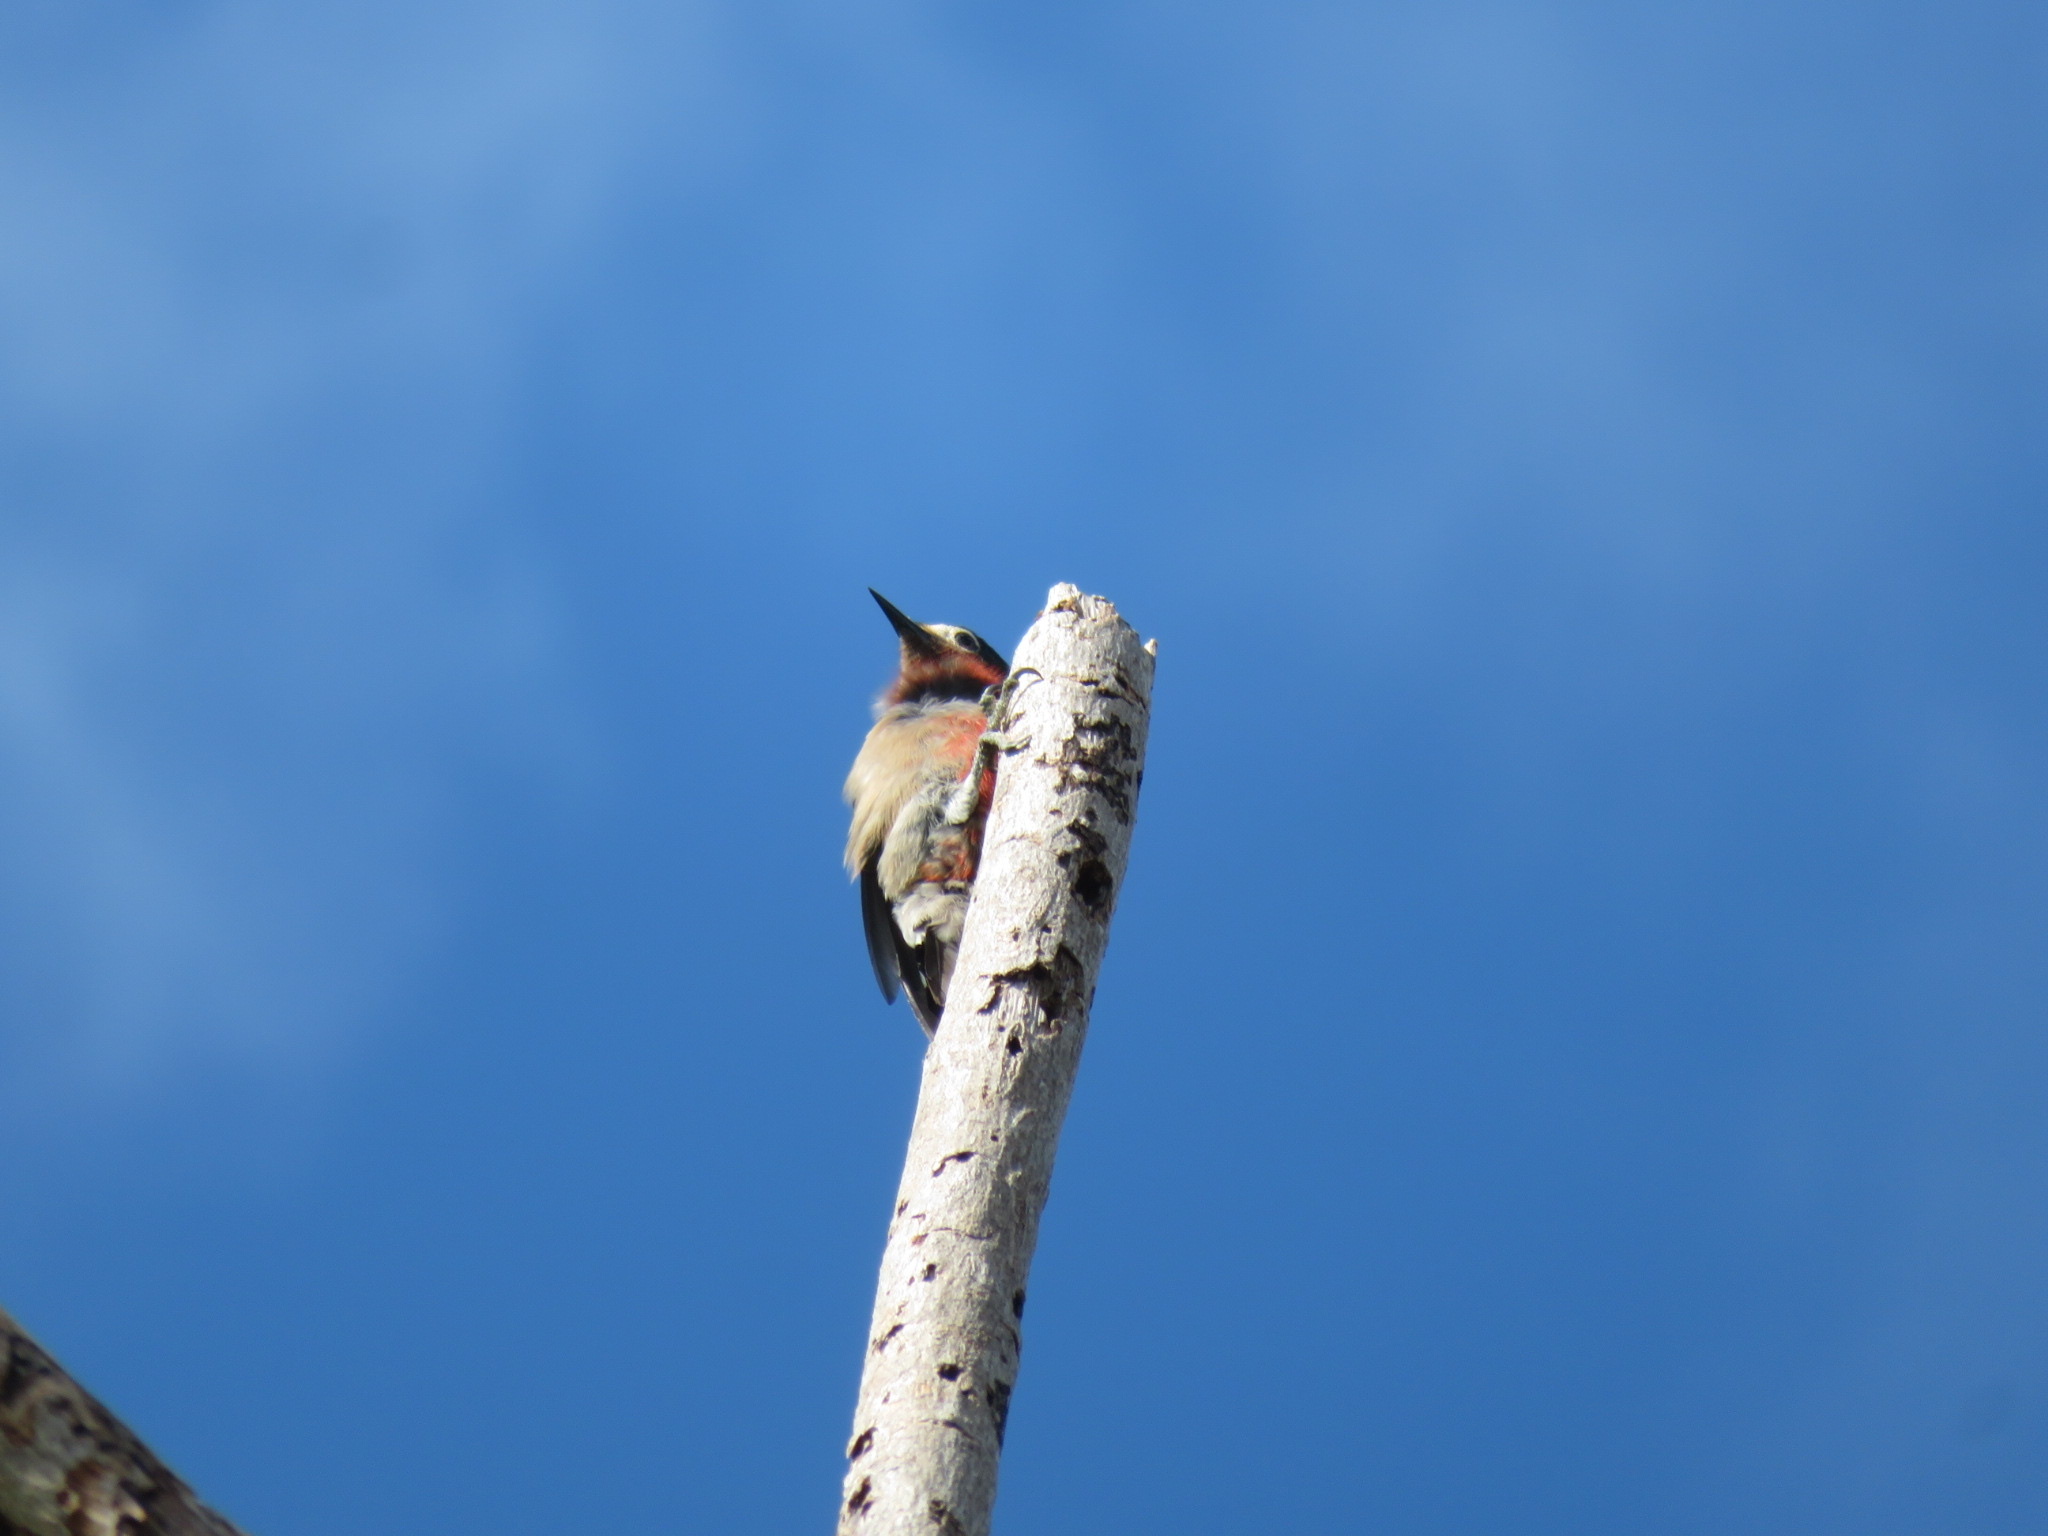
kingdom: Animalia
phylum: Chordata
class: Aves
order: Piciformes
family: Picidae
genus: Melanerpes
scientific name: Melanerpes portoricensis
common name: Puerto rican woodpecker
